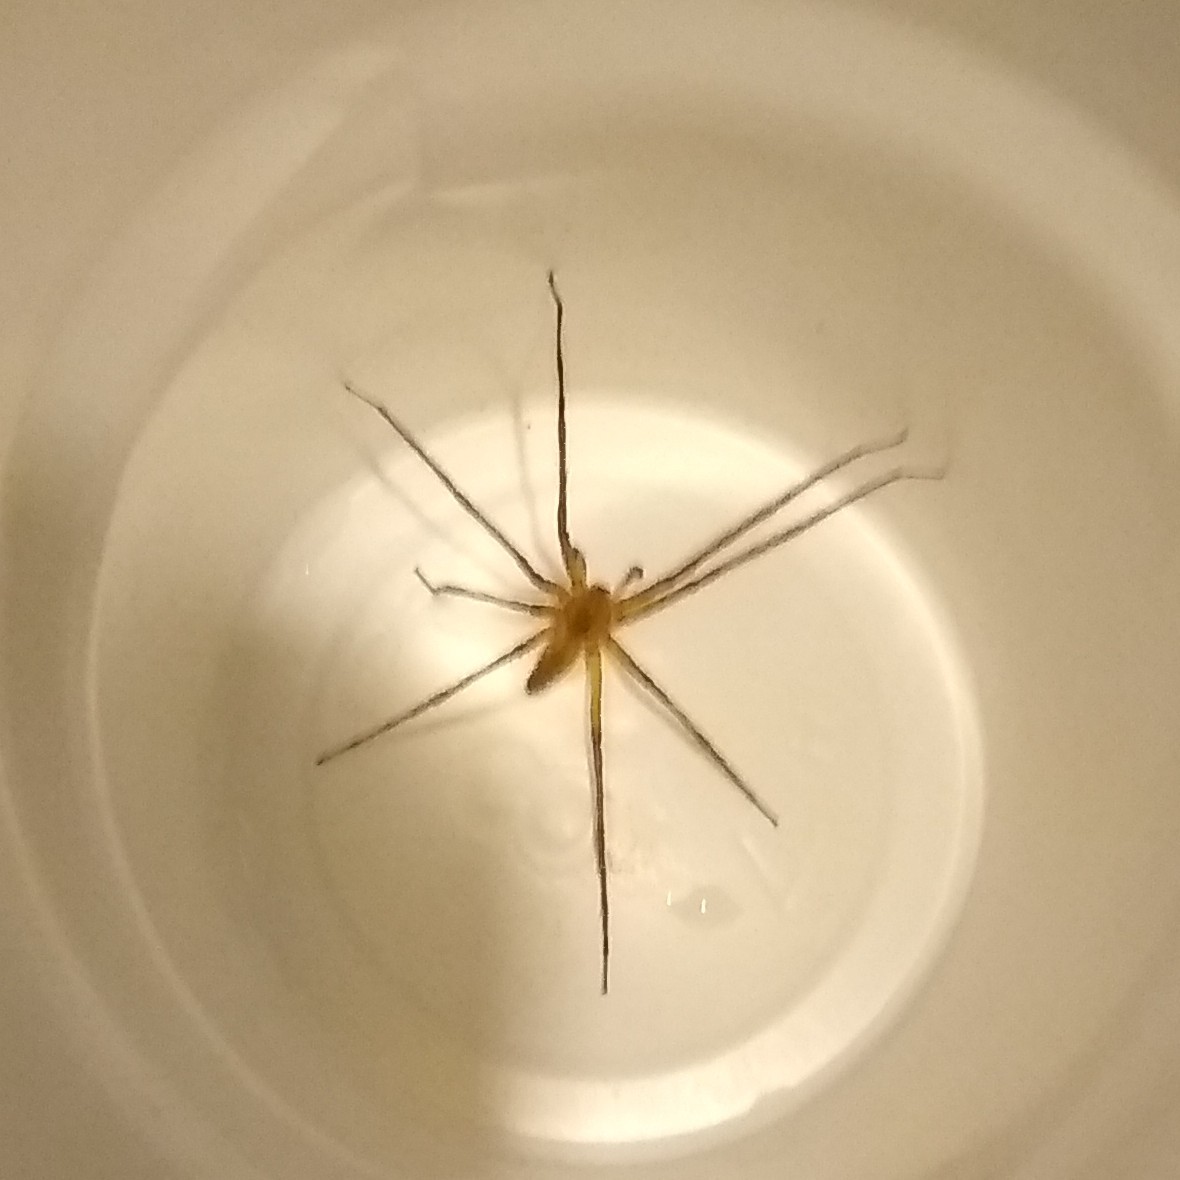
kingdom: Animalia
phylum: Arthropoda
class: Arachnida
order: Araneae
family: Pisauridae
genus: Pisaurina
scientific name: Pisaurina mira
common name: American nursery web spider
